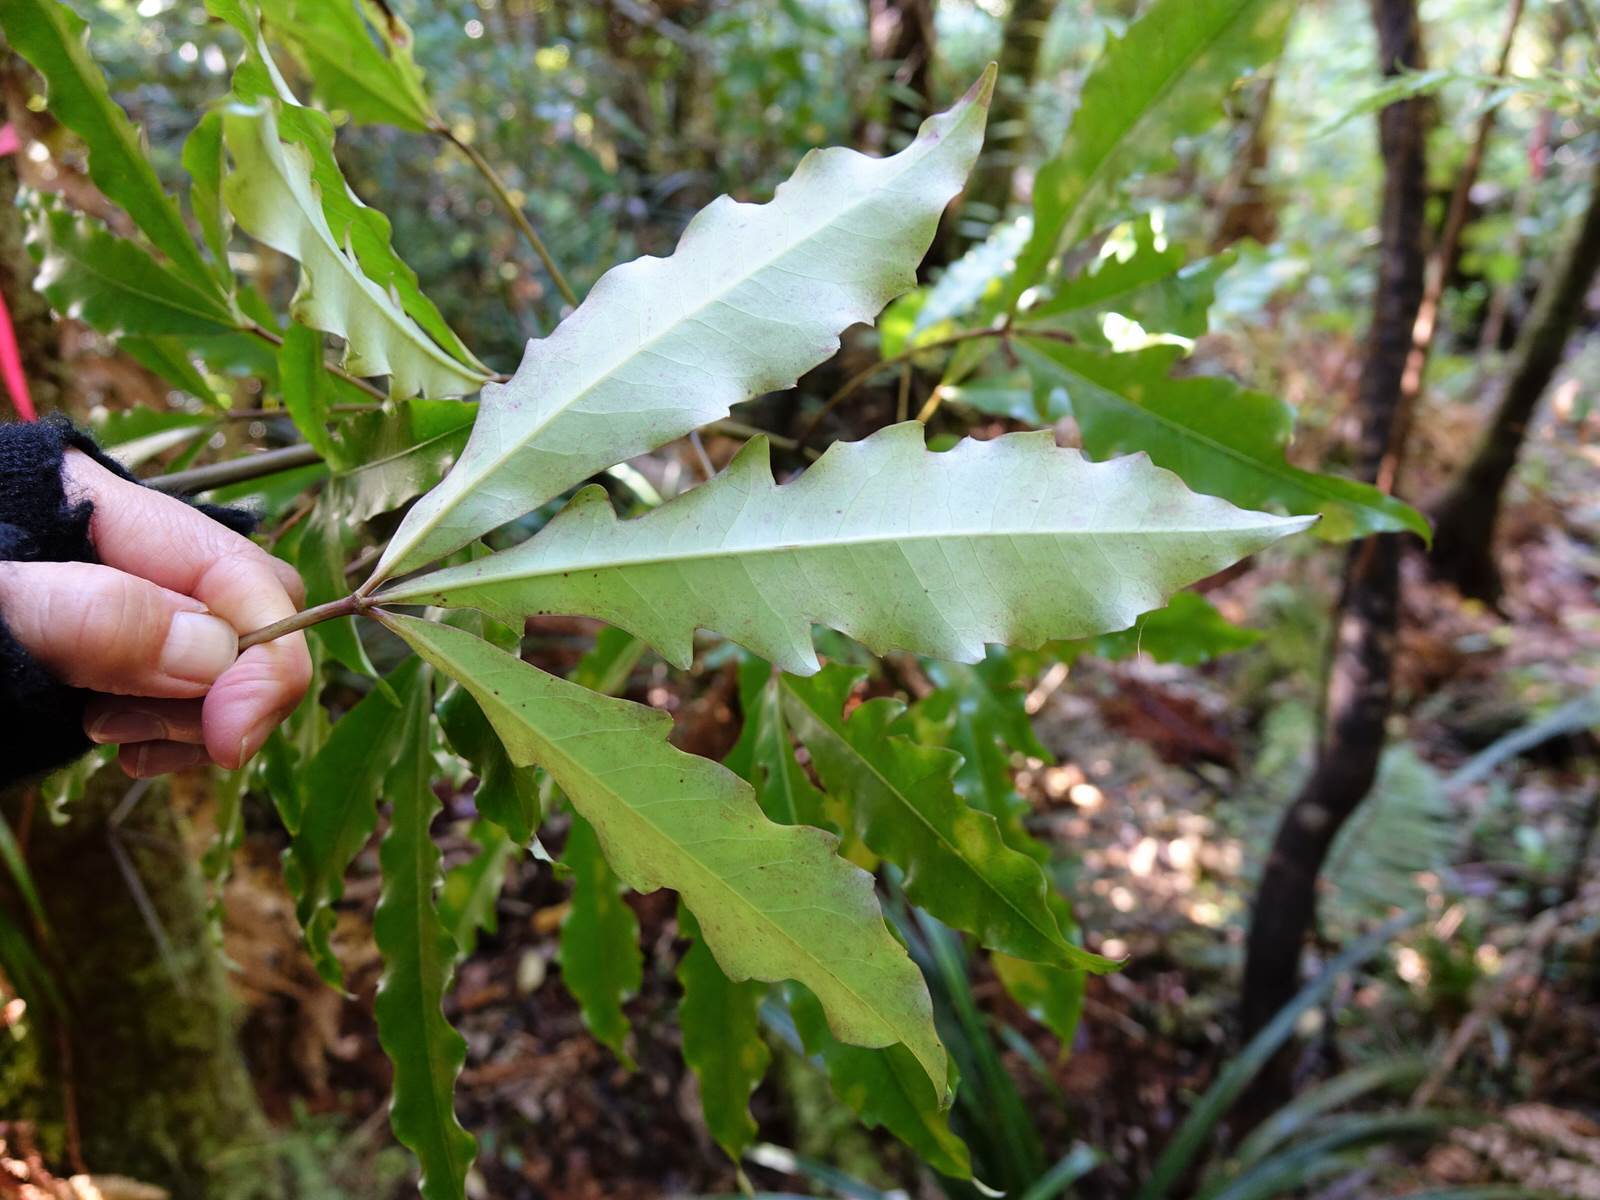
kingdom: Plantae
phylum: Tracheophyta
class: Magnoliopsida
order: Apiales
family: Araliaceae
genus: Raukaua
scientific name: Raukaua edgerleyi
